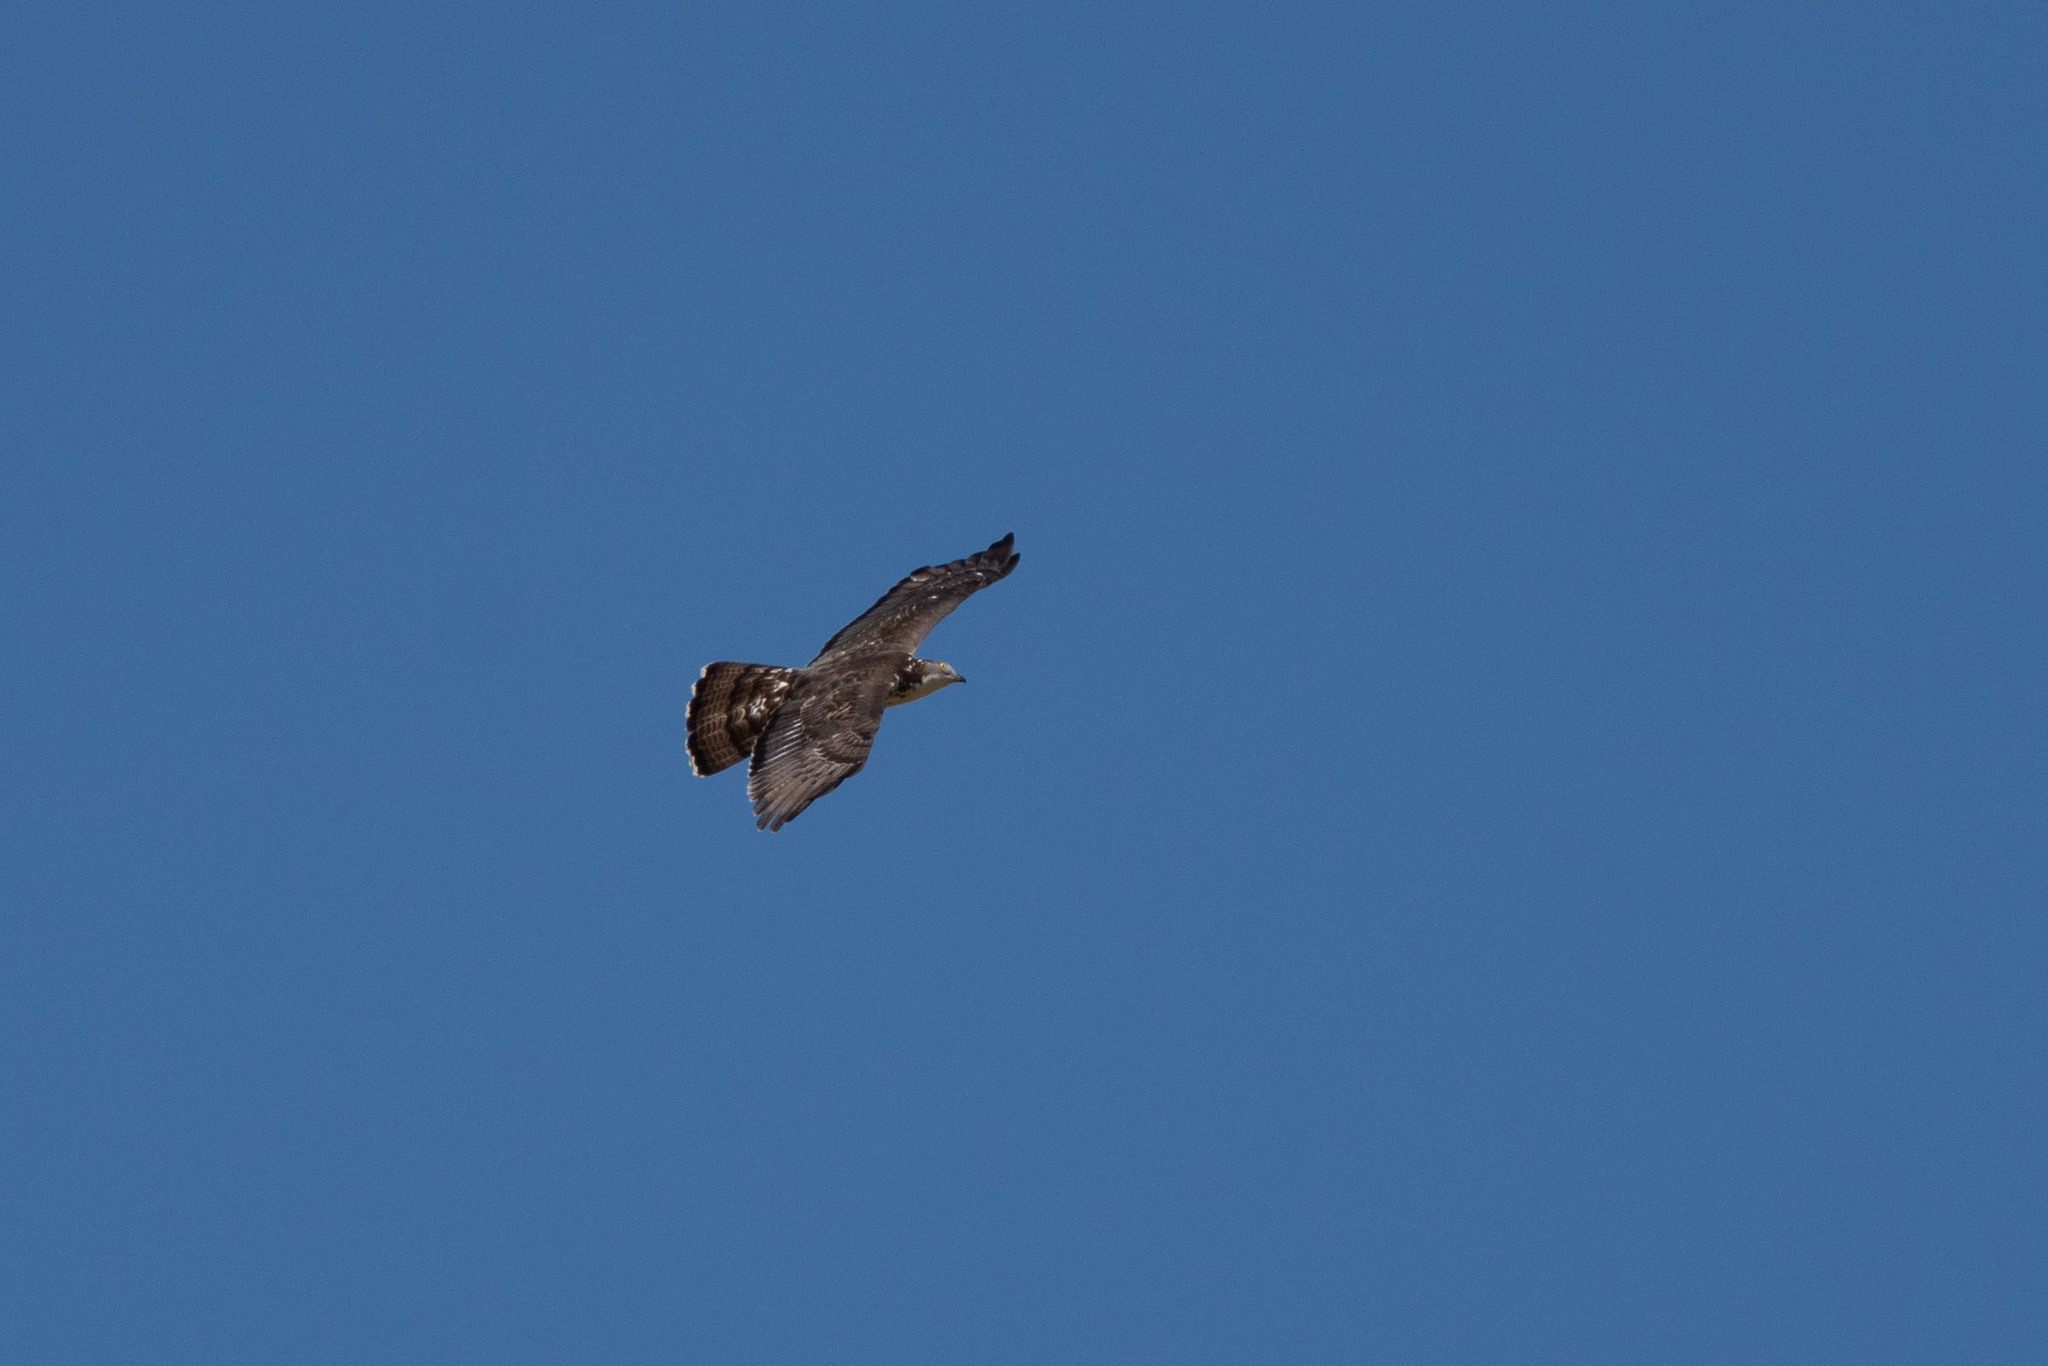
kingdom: Animalia
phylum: Chordata
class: Aves
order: Accipitriformes
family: Accipitridae
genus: Pernis
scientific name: Pernis apivorus
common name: European honey buzzard
